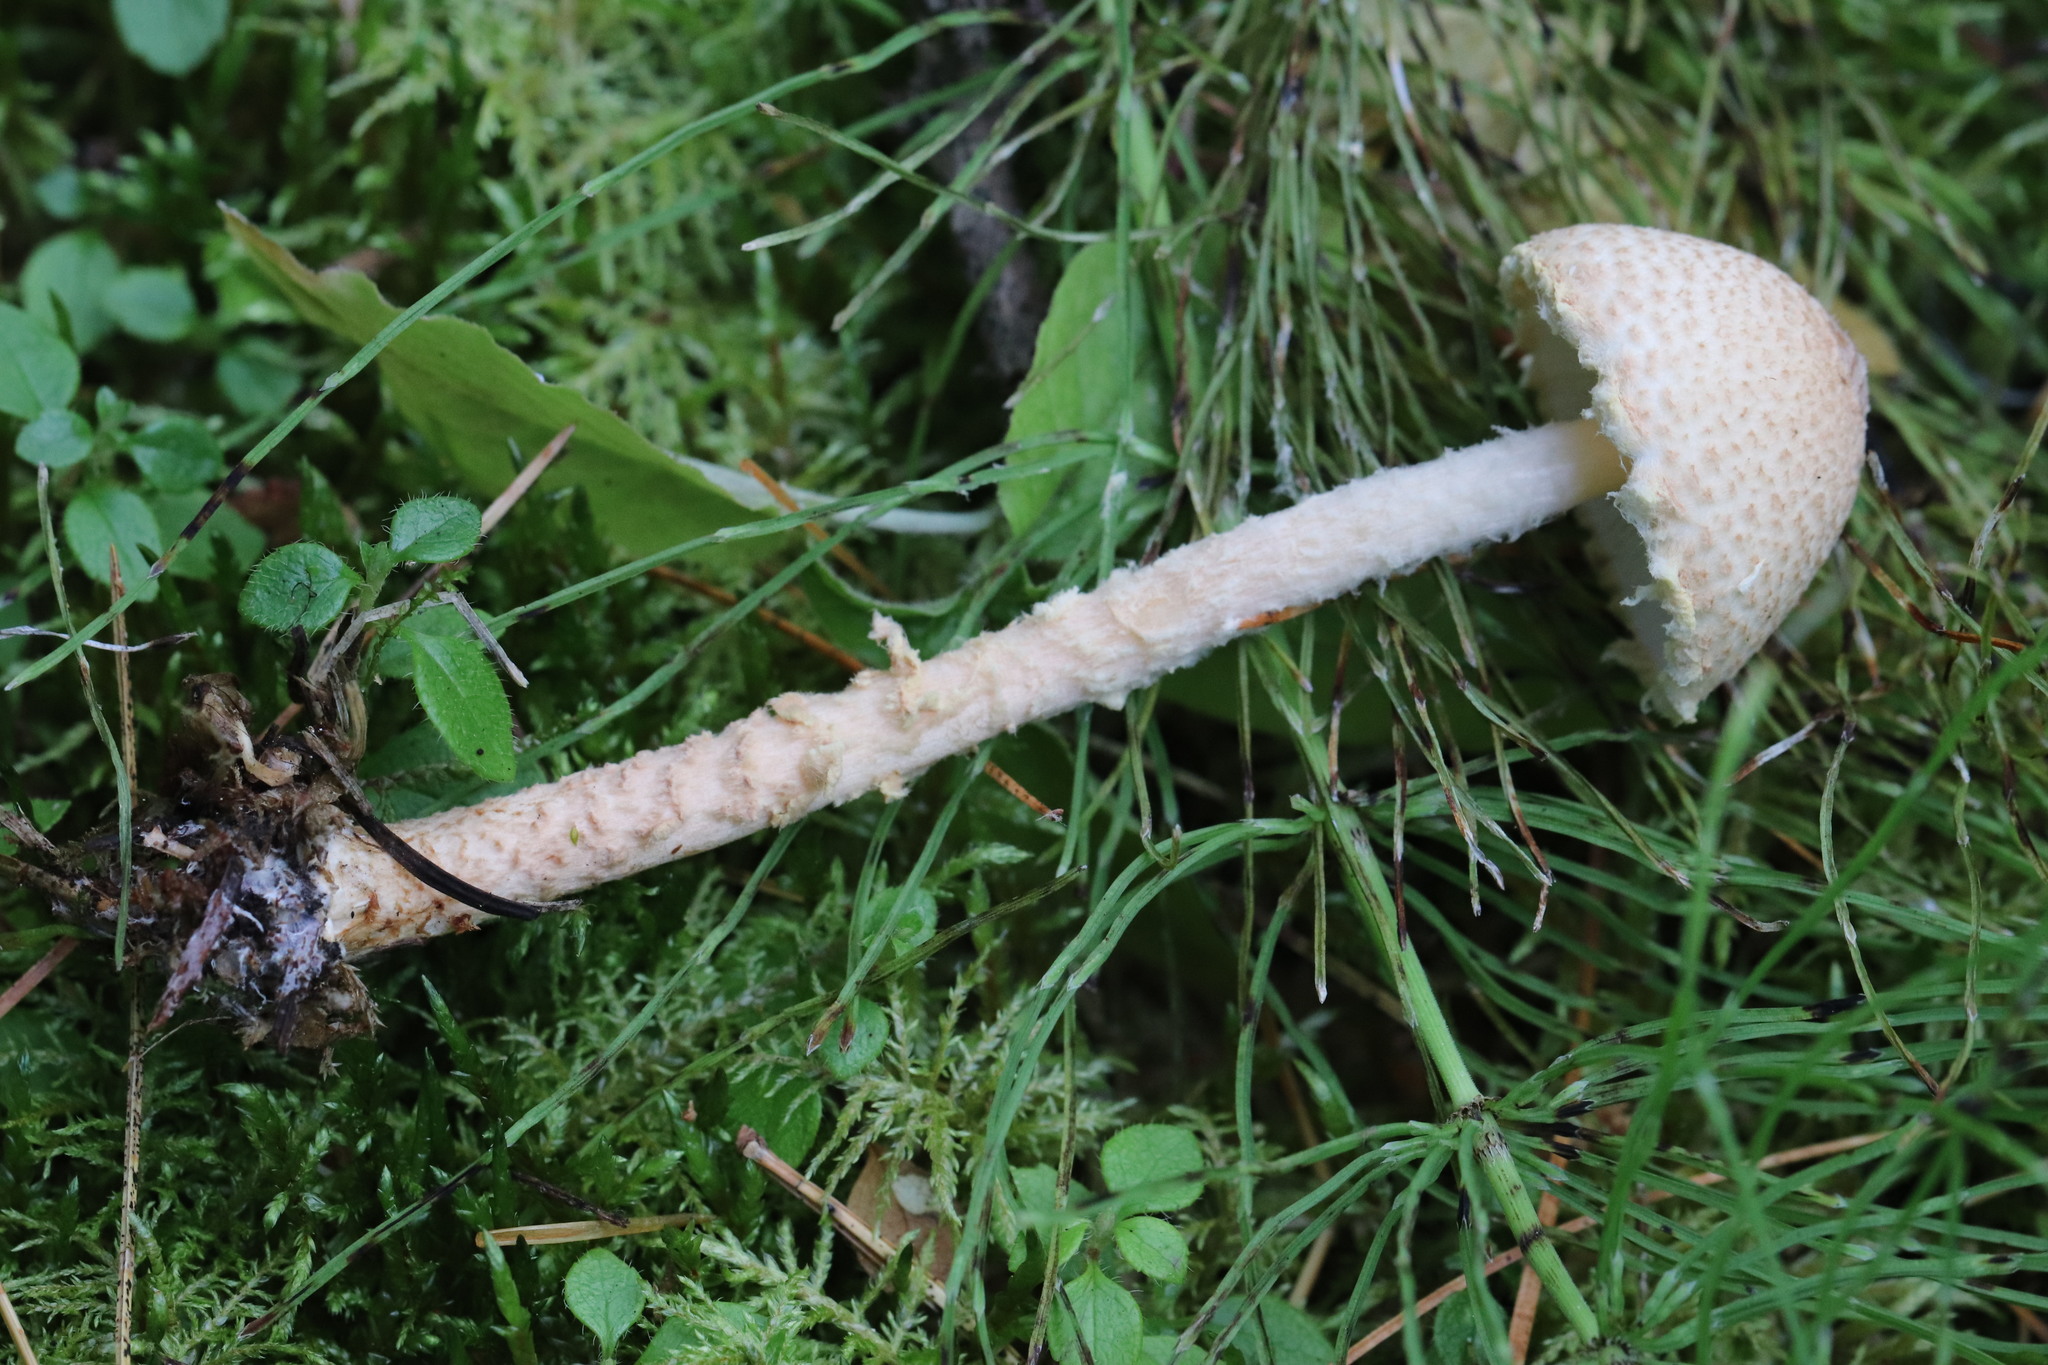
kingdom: Fungi
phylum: Basidiomycota
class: Agaricomycetes
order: Agaricales
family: Agaricaceae
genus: Lepiota
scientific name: Lepiota clypeolaria
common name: Shield dapperling
